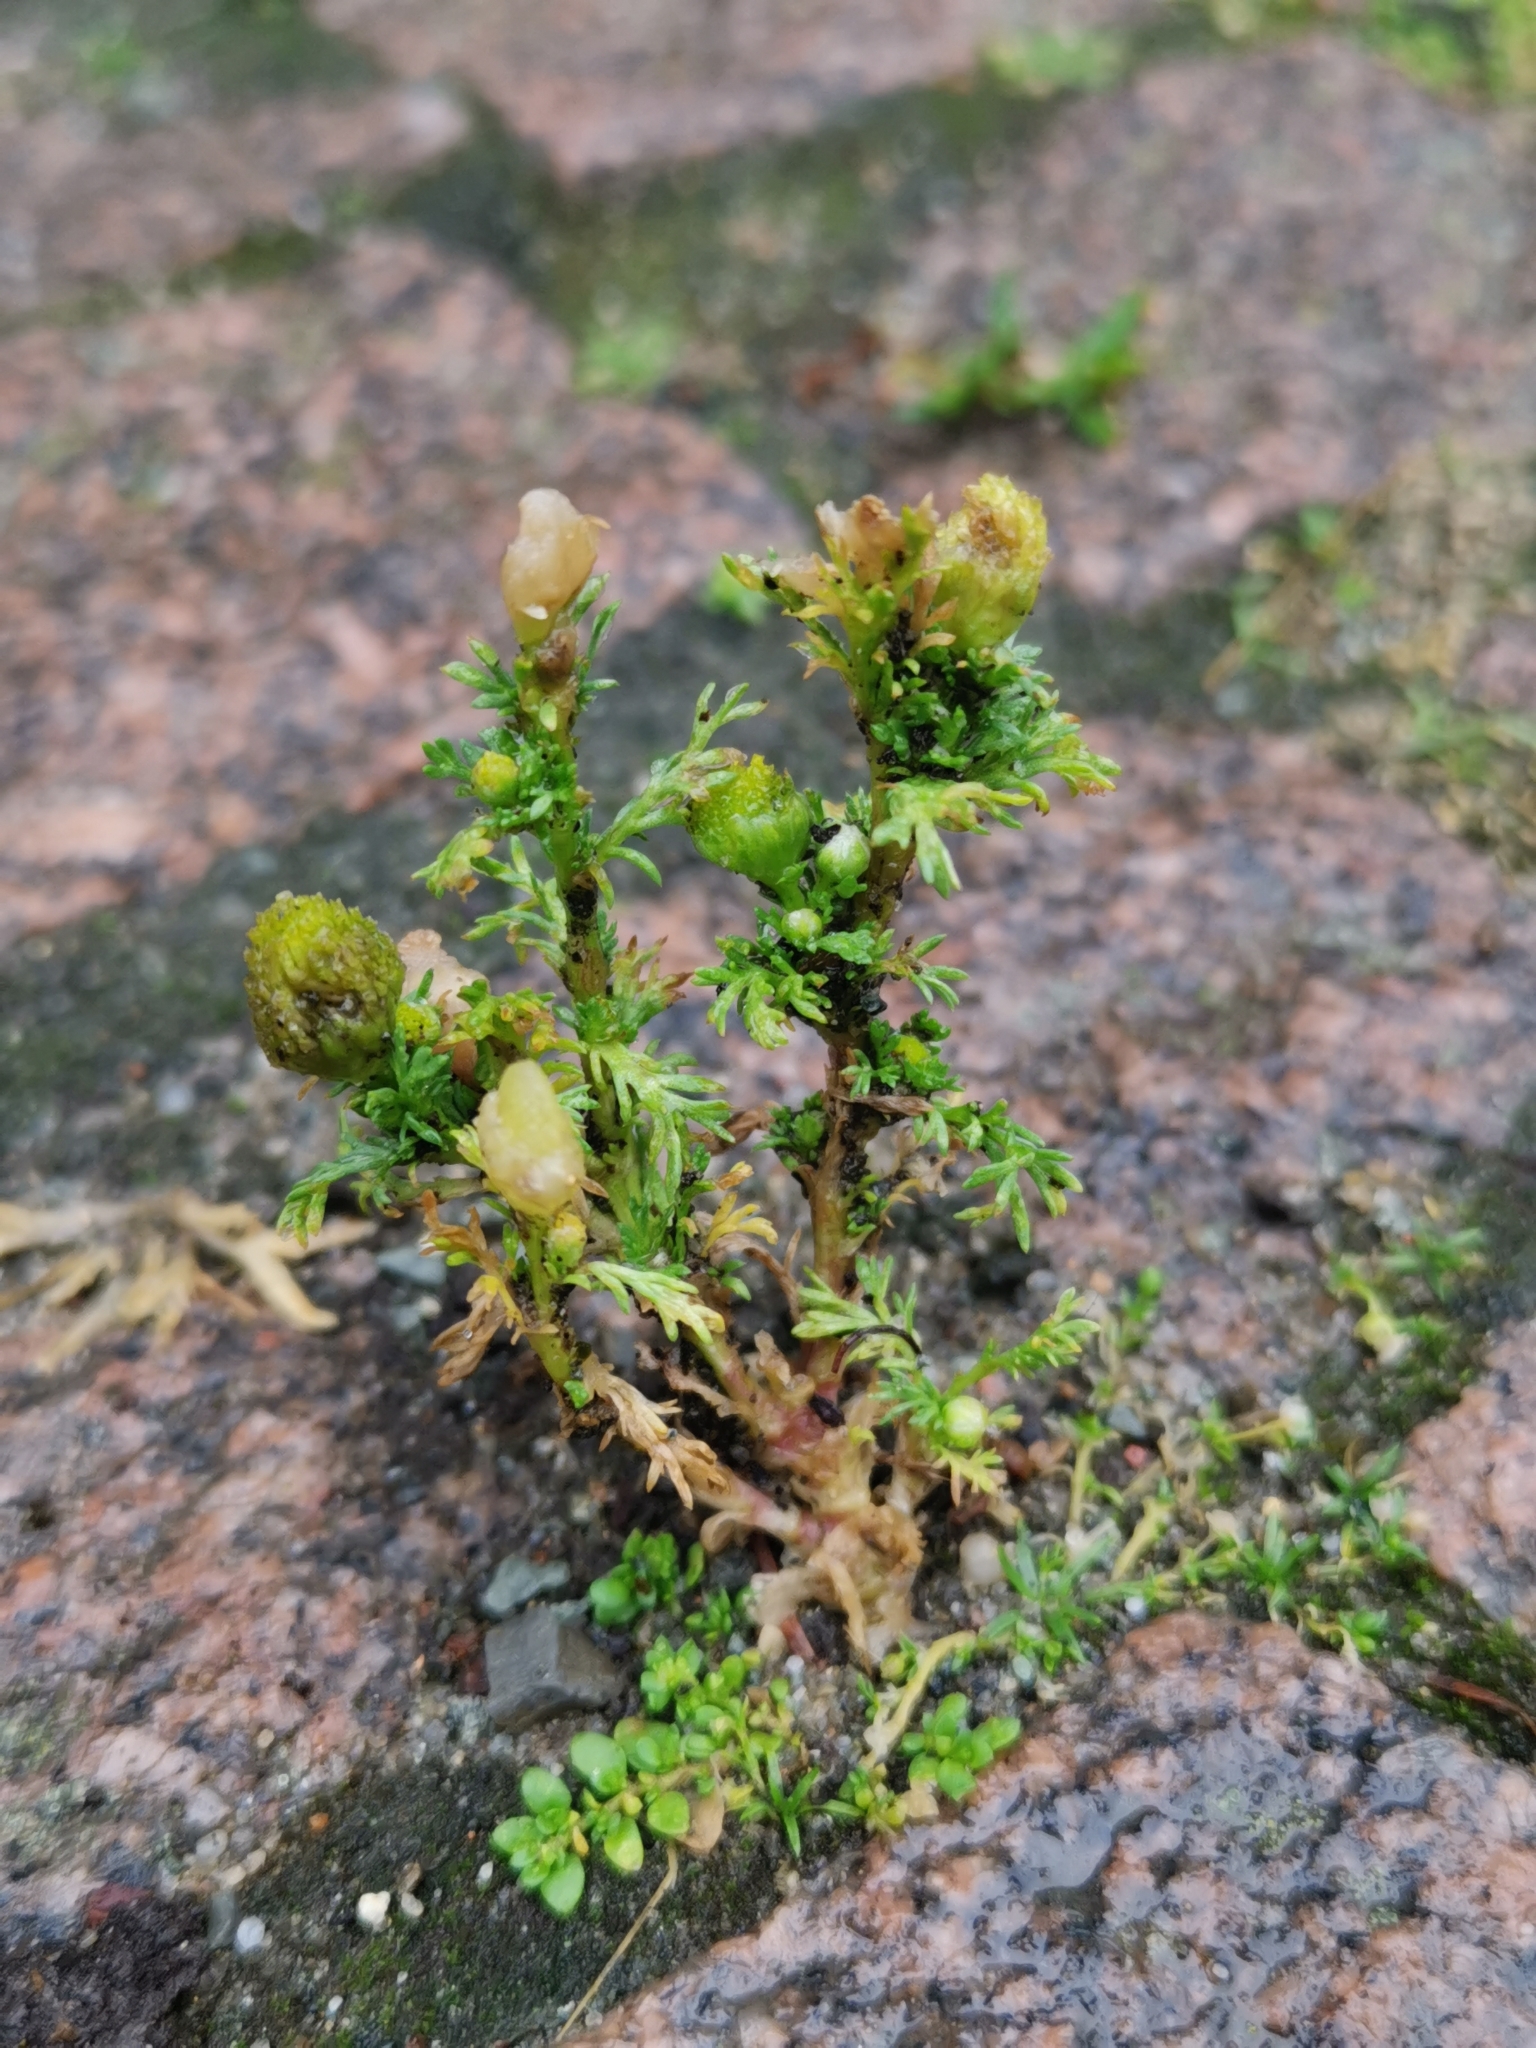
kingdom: Plantae
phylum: Tracheophyta
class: Magnoliopsida
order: Asterales
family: Asteraceae
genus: Matricaria
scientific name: Matricaria discoidea
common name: Disc mayweed
